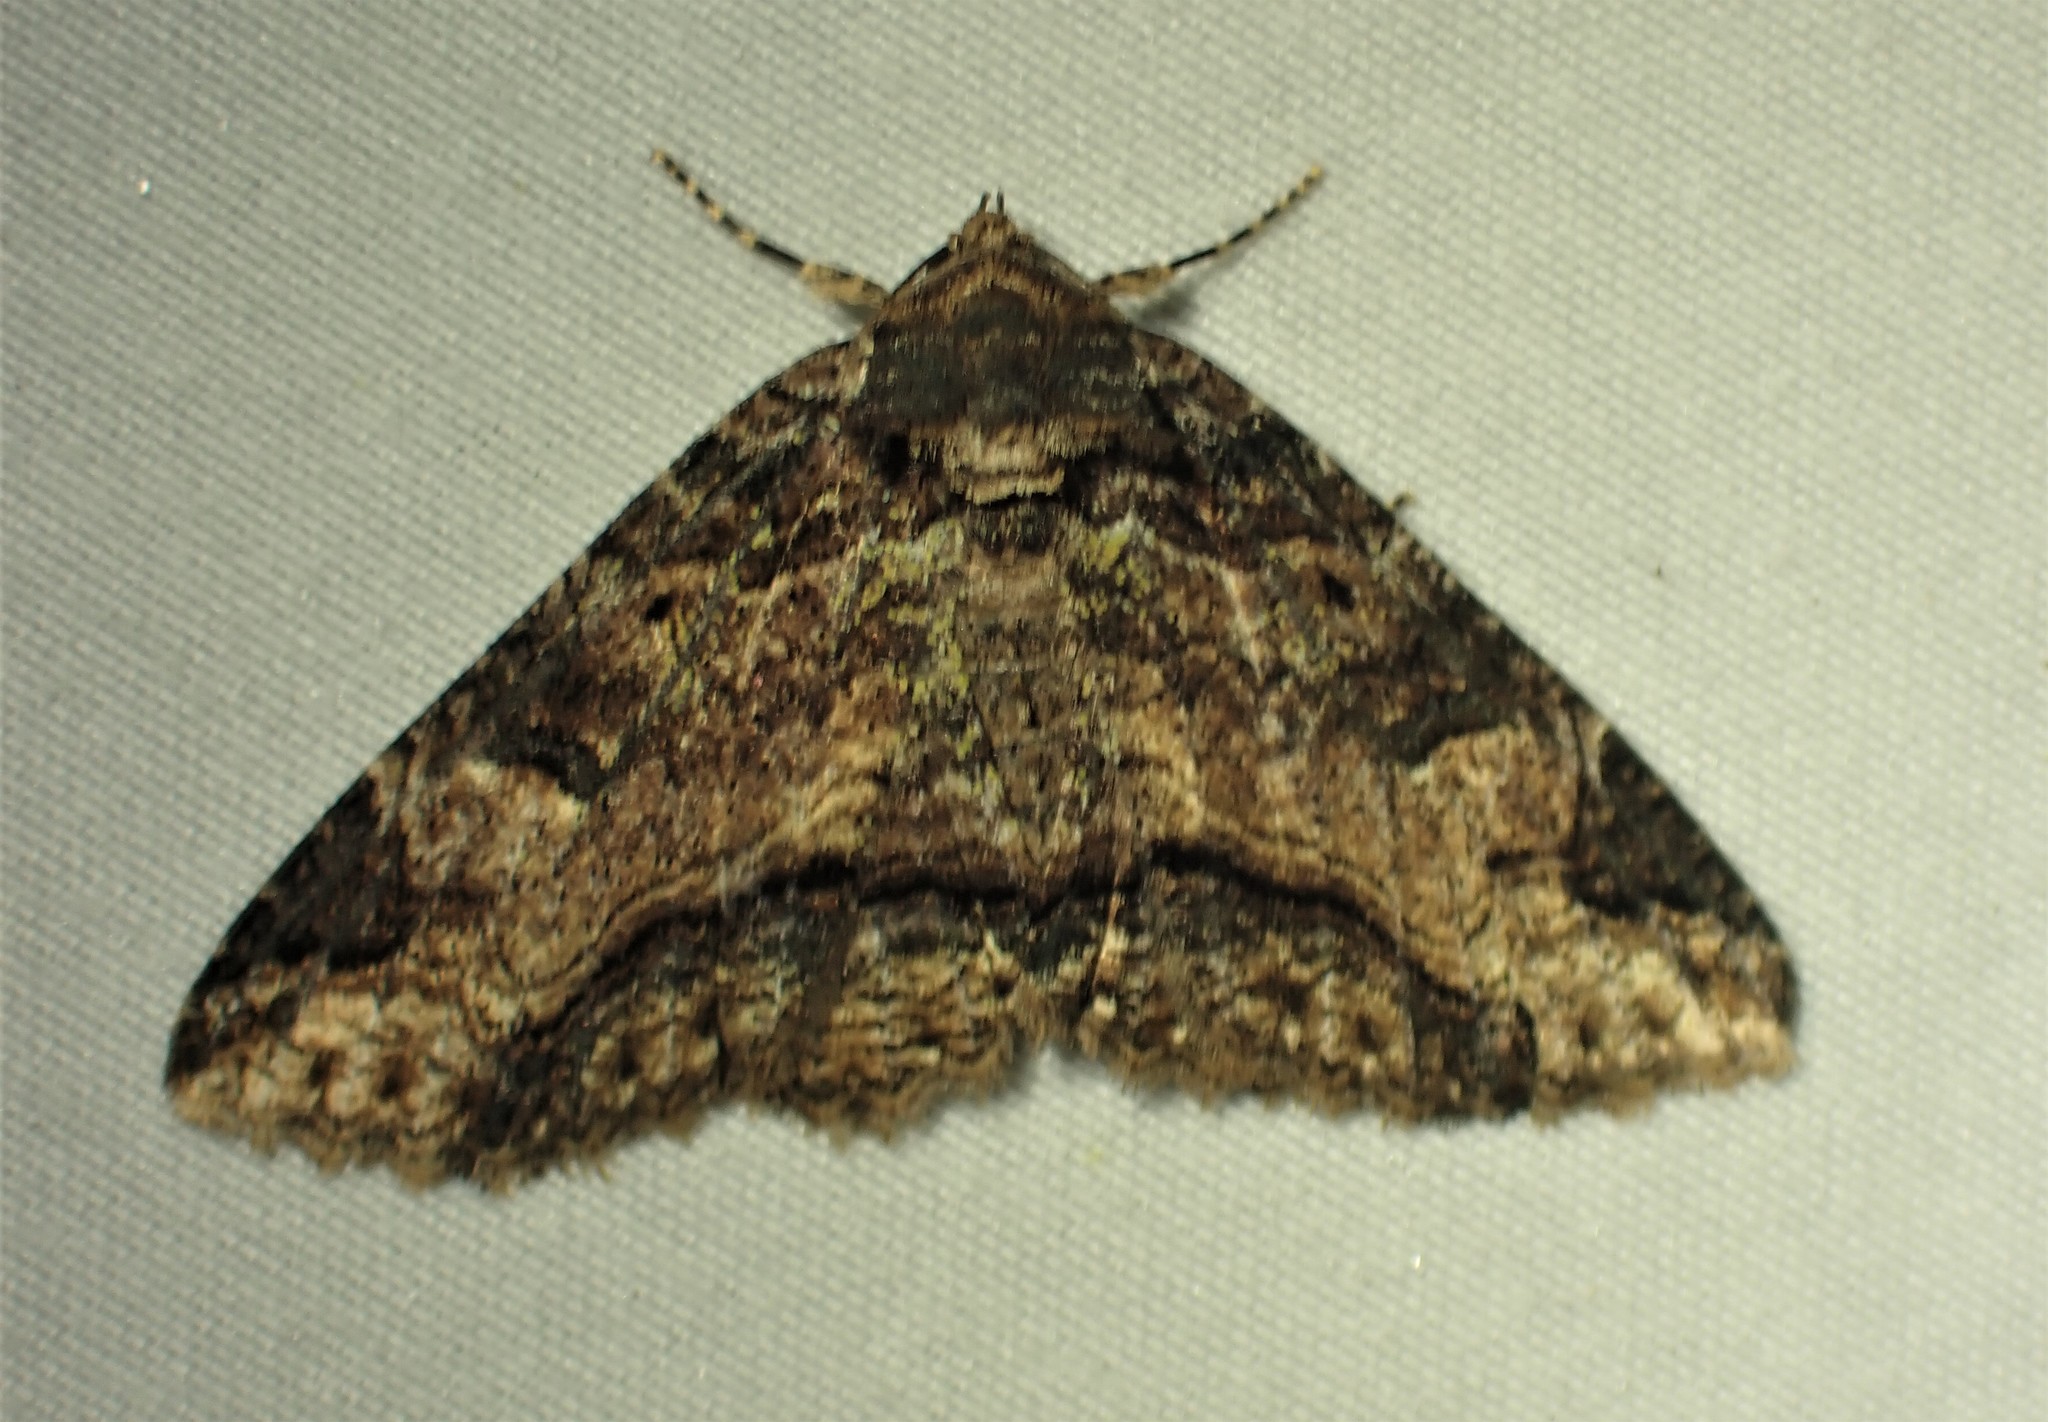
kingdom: Animalia
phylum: Arthropoda
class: Insecta
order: Lepidoptera
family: Erebidae
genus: Zale
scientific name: Zale minerea
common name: Colorful zale moth
